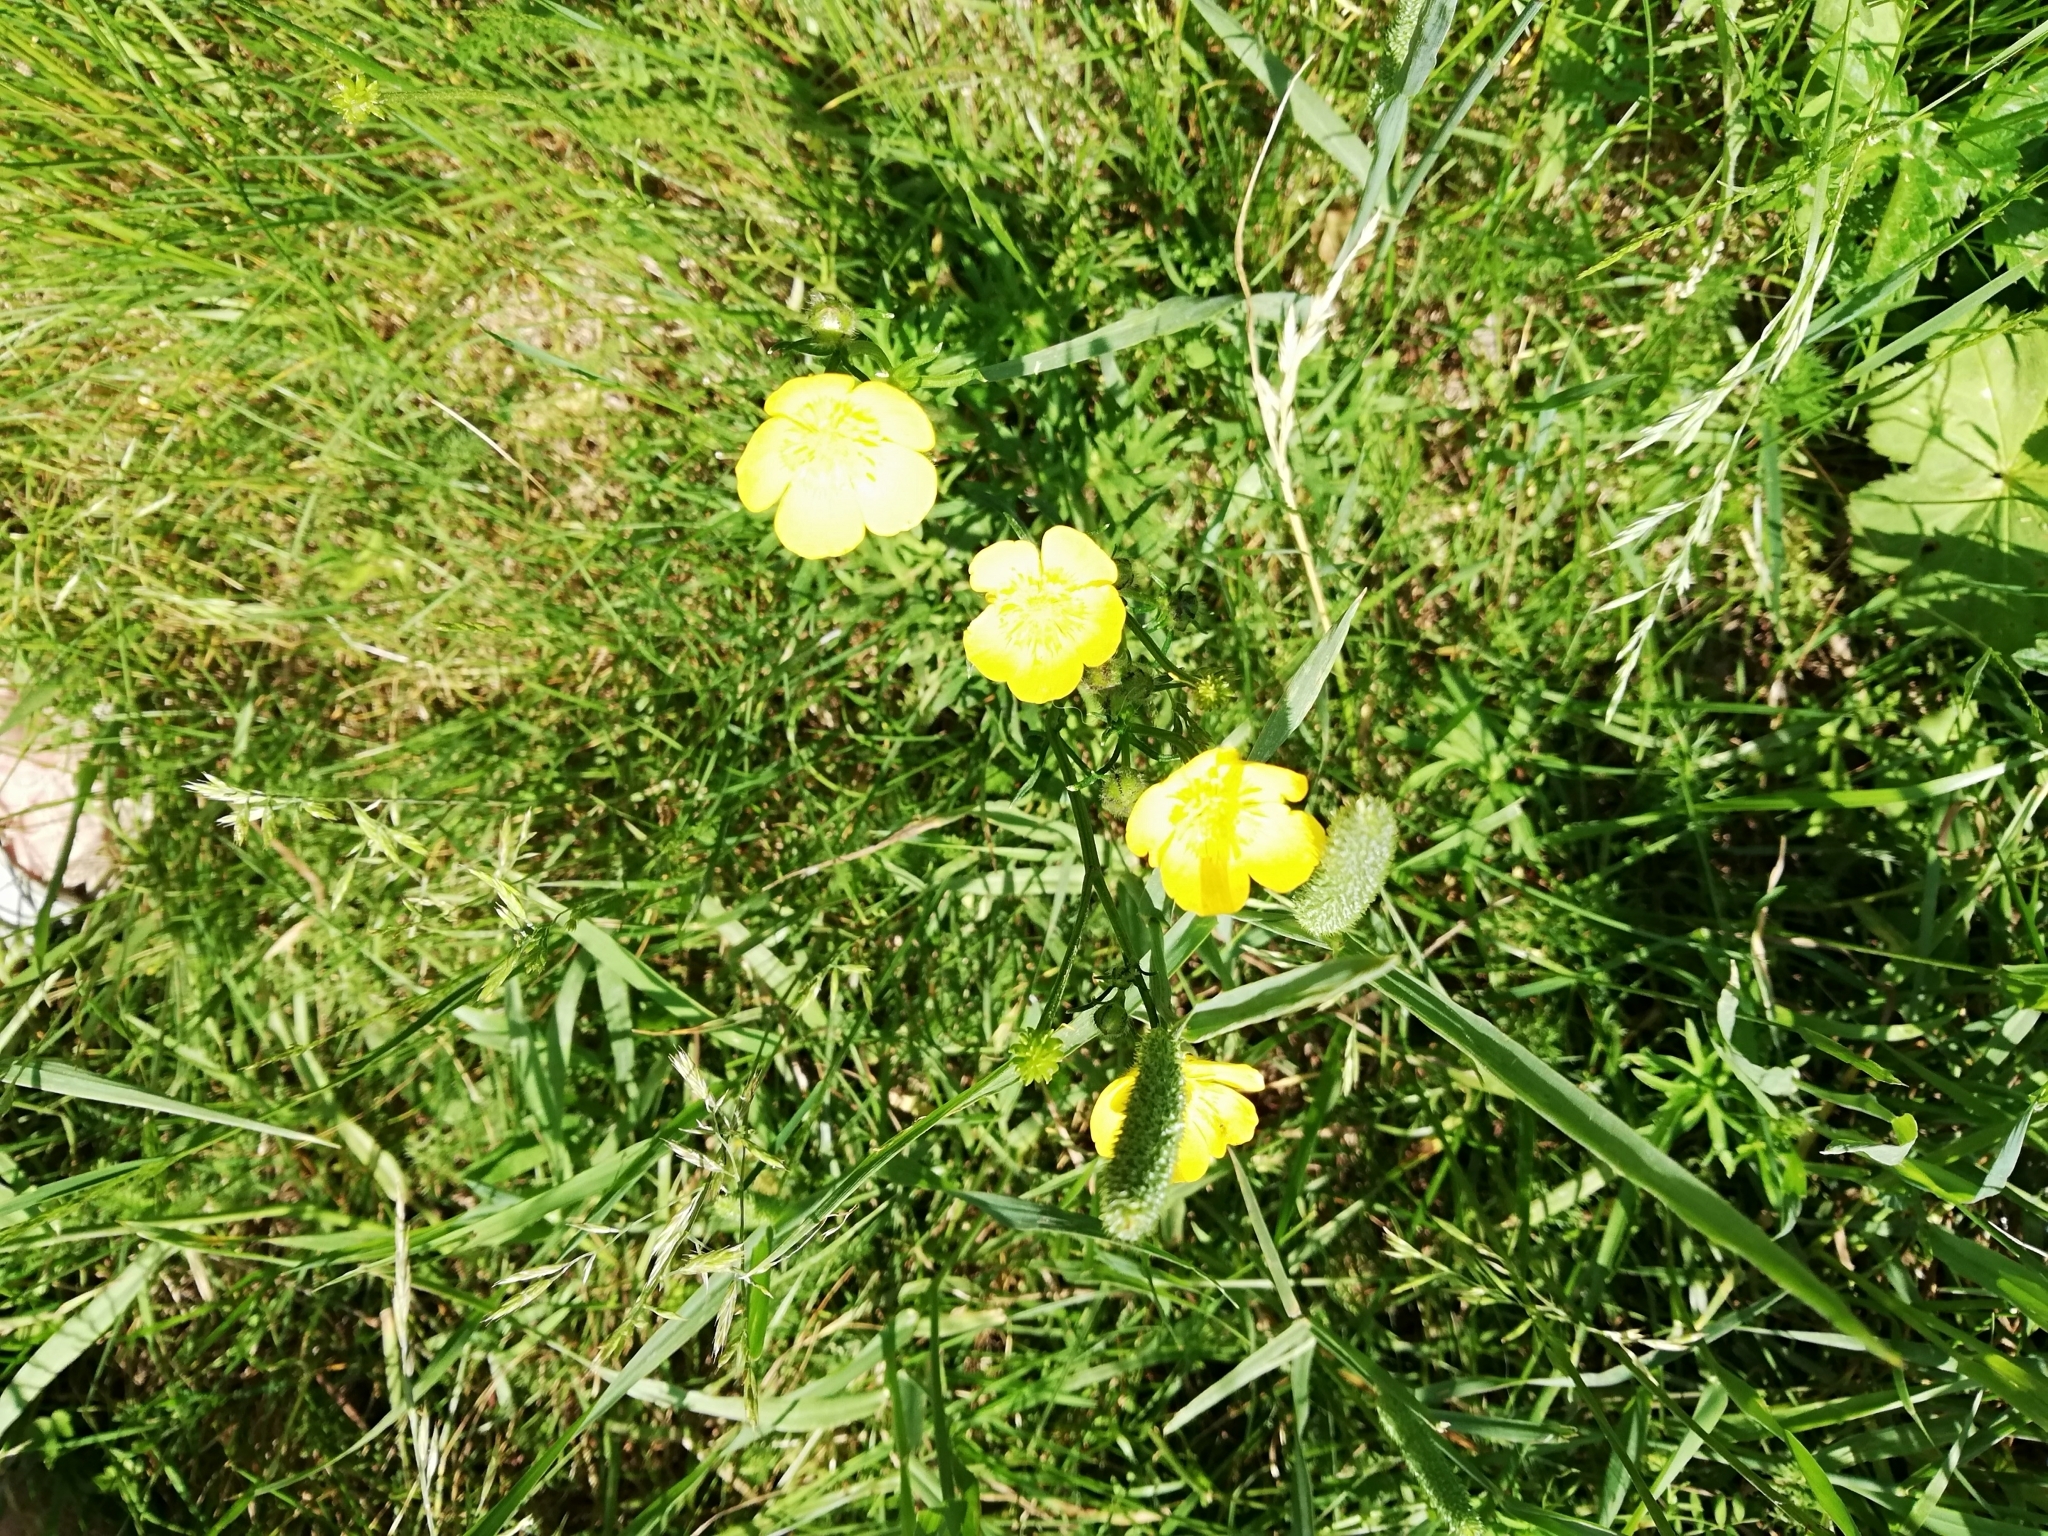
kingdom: Plantae
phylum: Tracheophyta
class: Magnoliopsida
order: Ranunculales
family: Ranunculaceae
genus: Ranunculus
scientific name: Ranunculus polyanthemos
